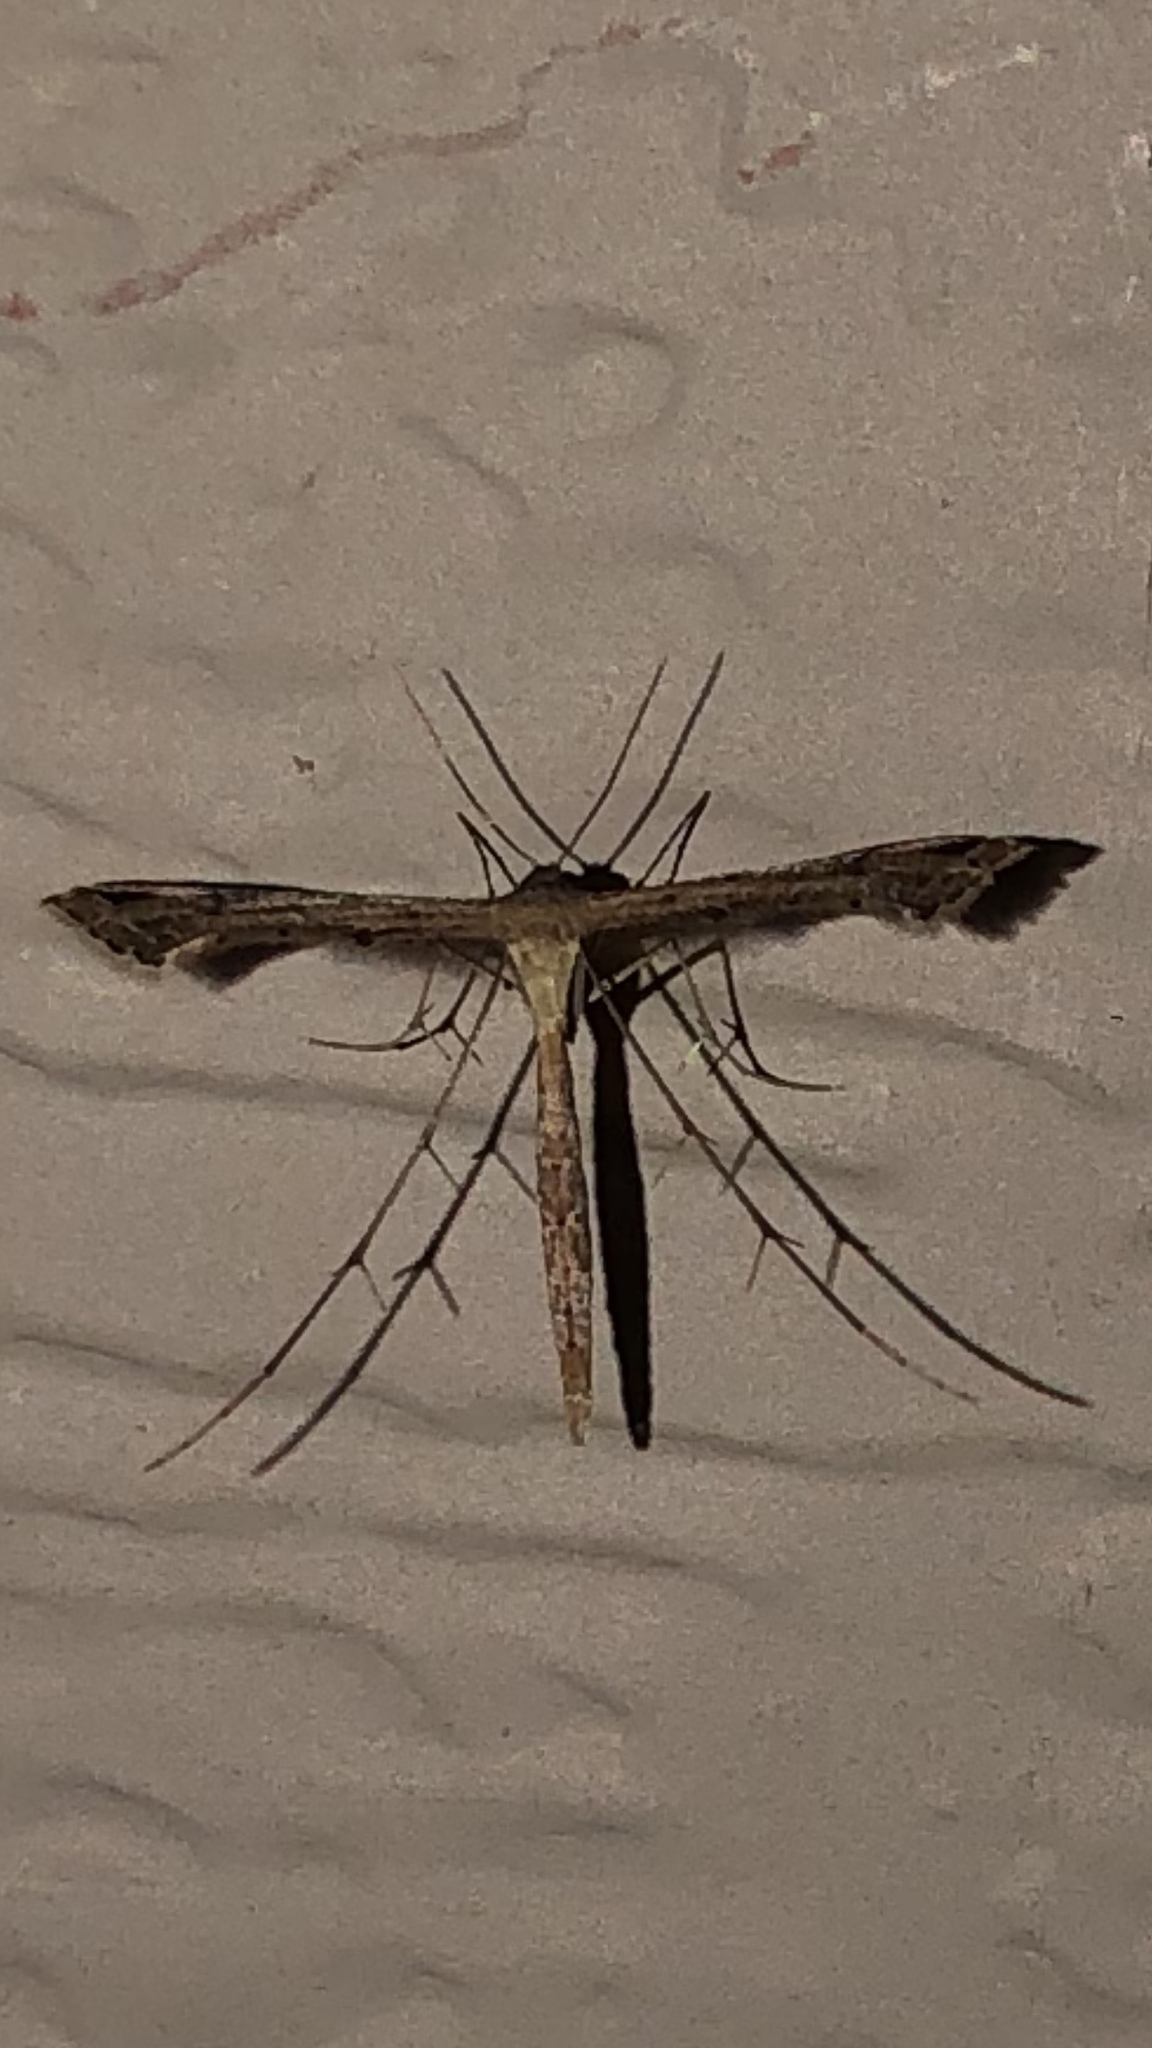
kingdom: Animalia
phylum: Arthropoda
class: Insecta
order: Lepidoptera
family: Pterophoridae
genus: Stenoptilodes
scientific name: Stenoptilodes
